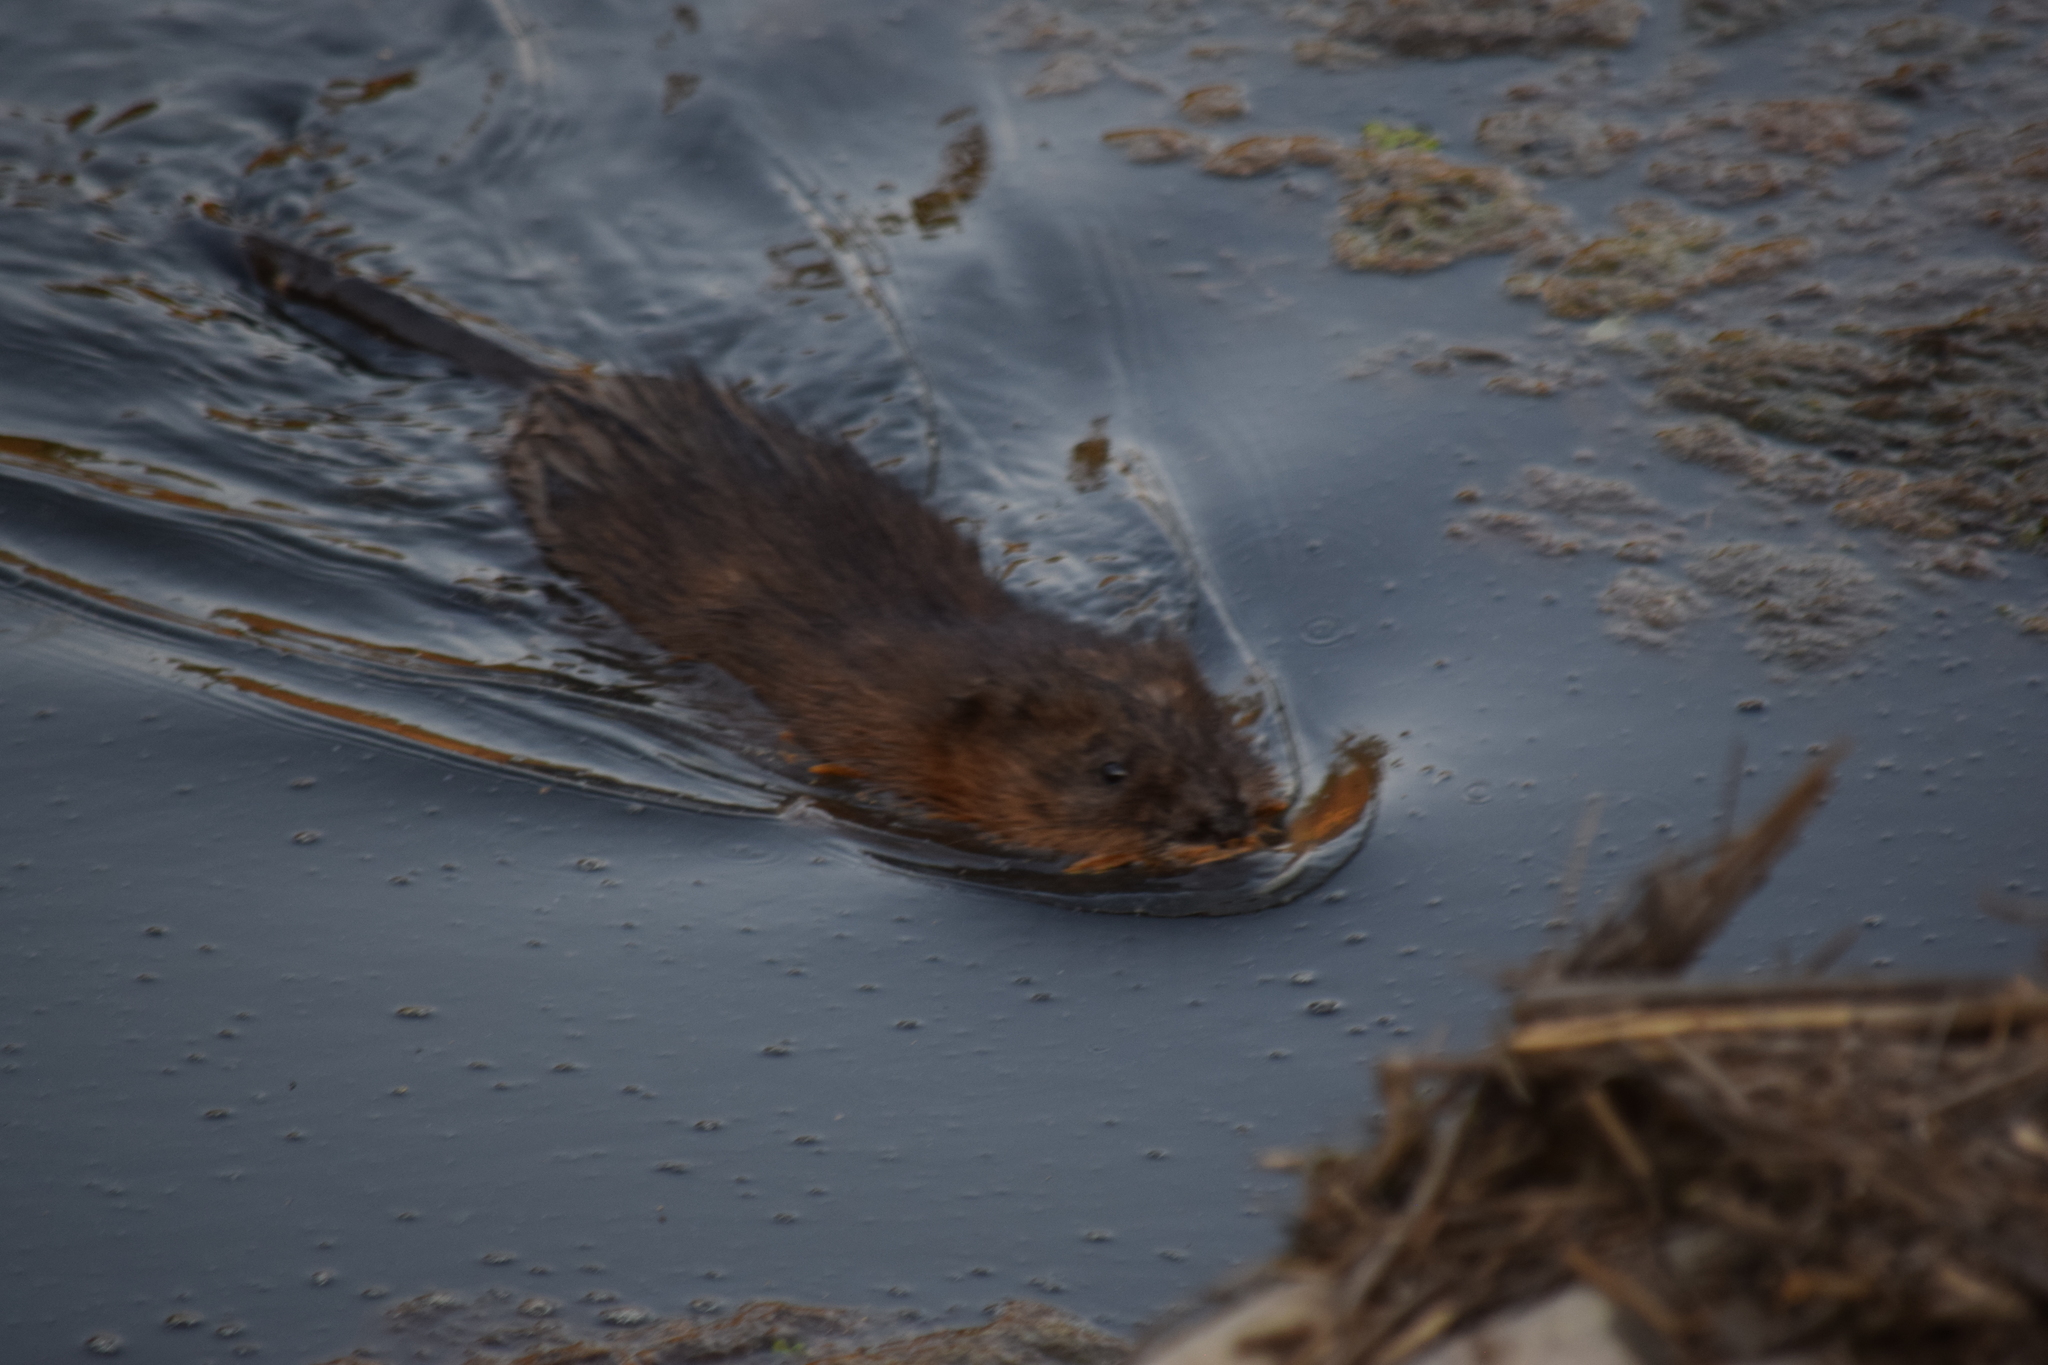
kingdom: Animalia
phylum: Chordata
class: Mammalia
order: Rodentia
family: Cricetidae
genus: Ondatra
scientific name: Ondatra zibethicus
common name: Muskrat
